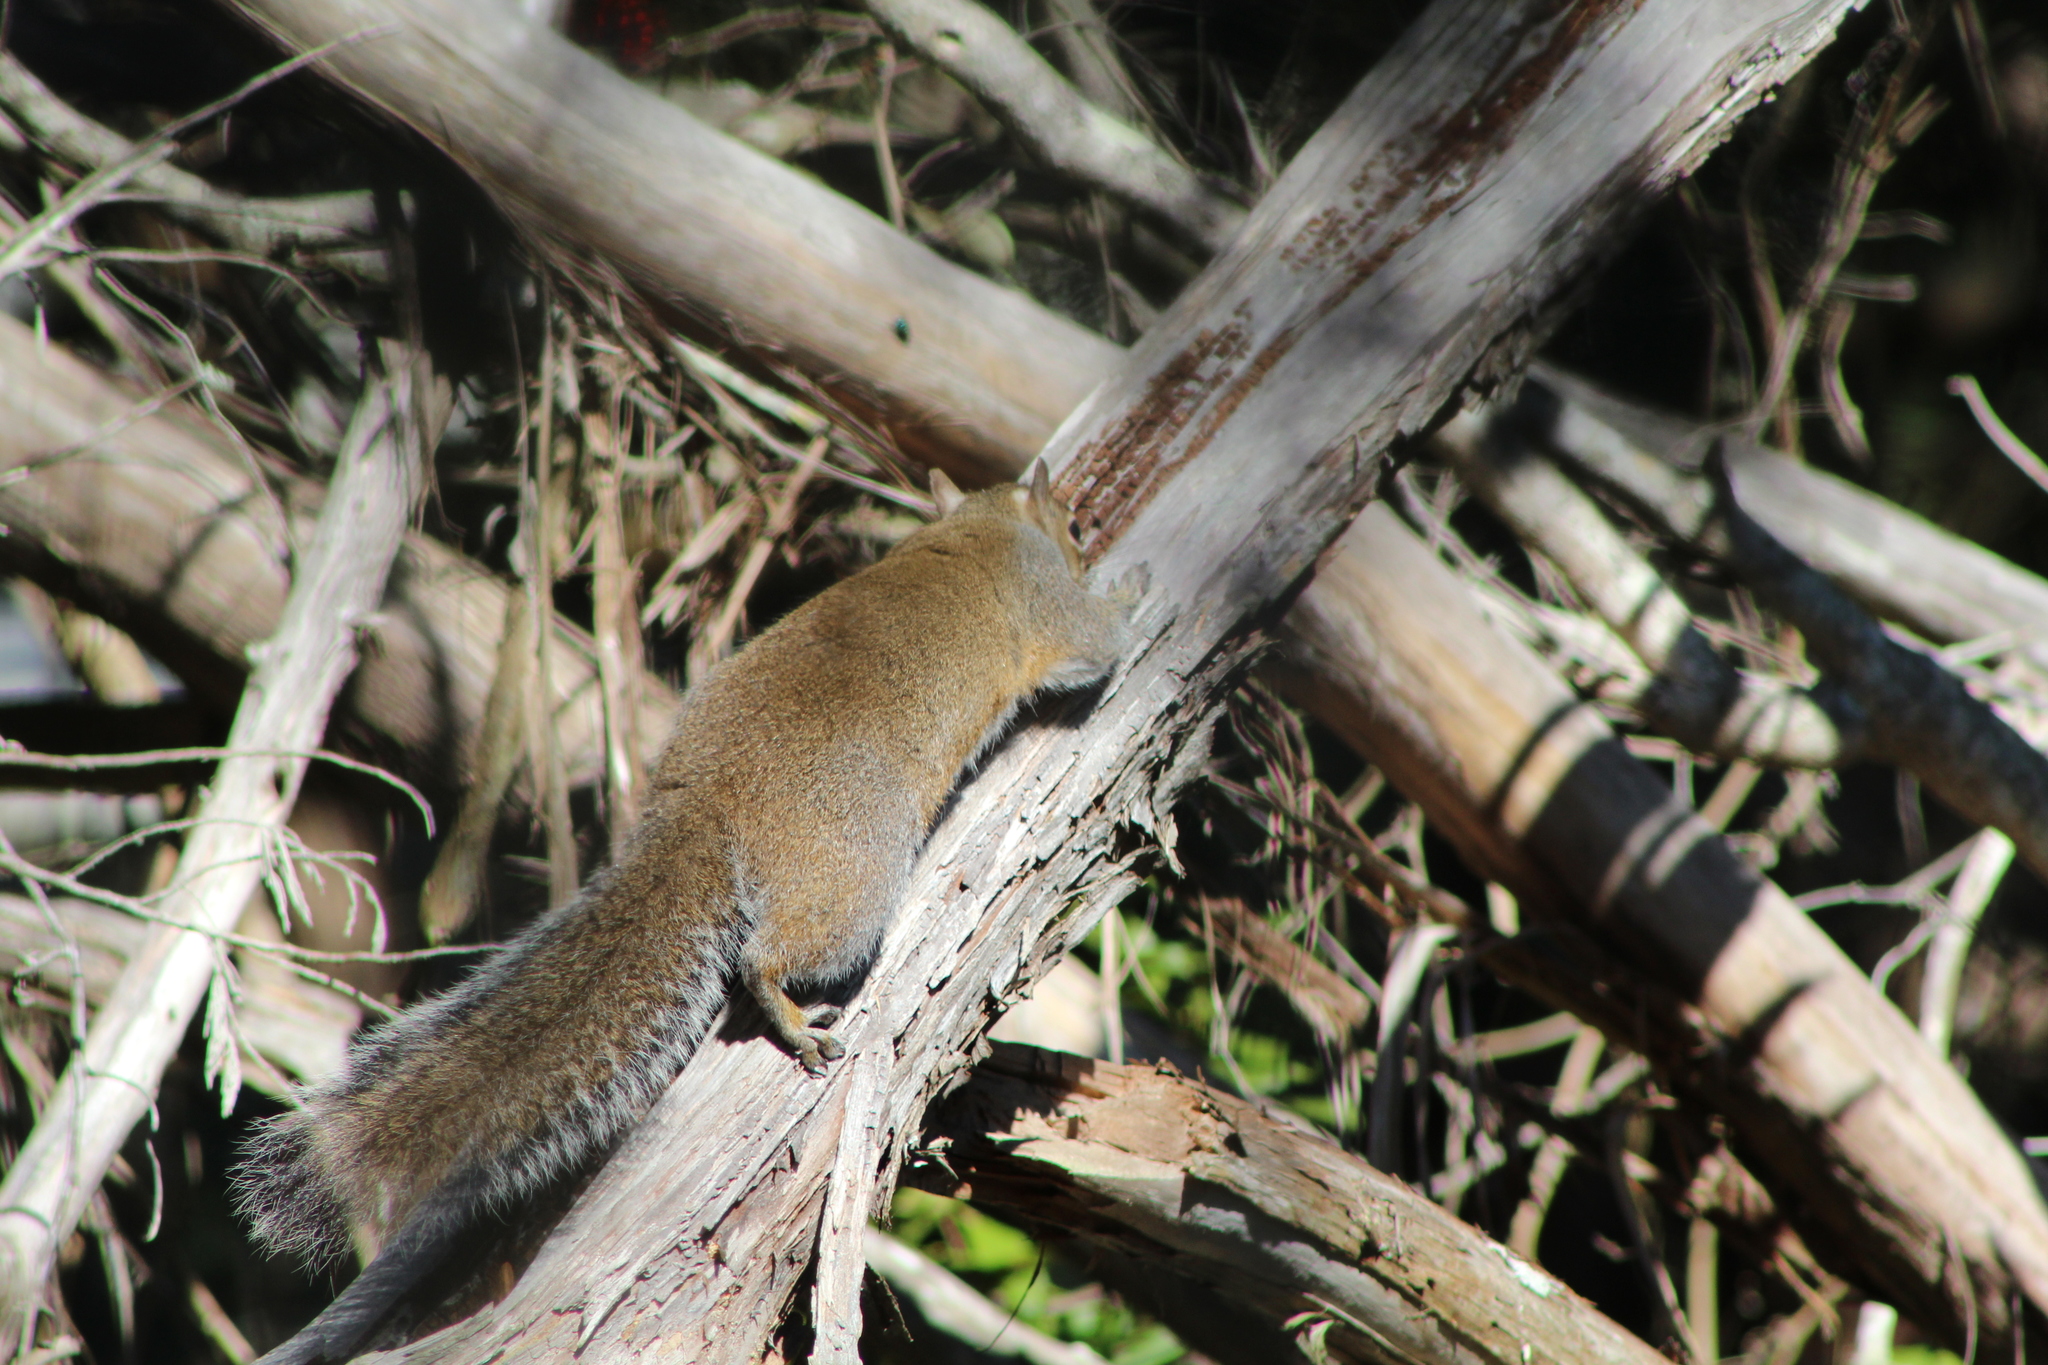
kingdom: Animalia
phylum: Chordata
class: Mammalia
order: Rodentia
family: Sciuridae
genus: Sciurus
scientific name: Sciurus carolinensis
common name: Eastern gray squirrel
